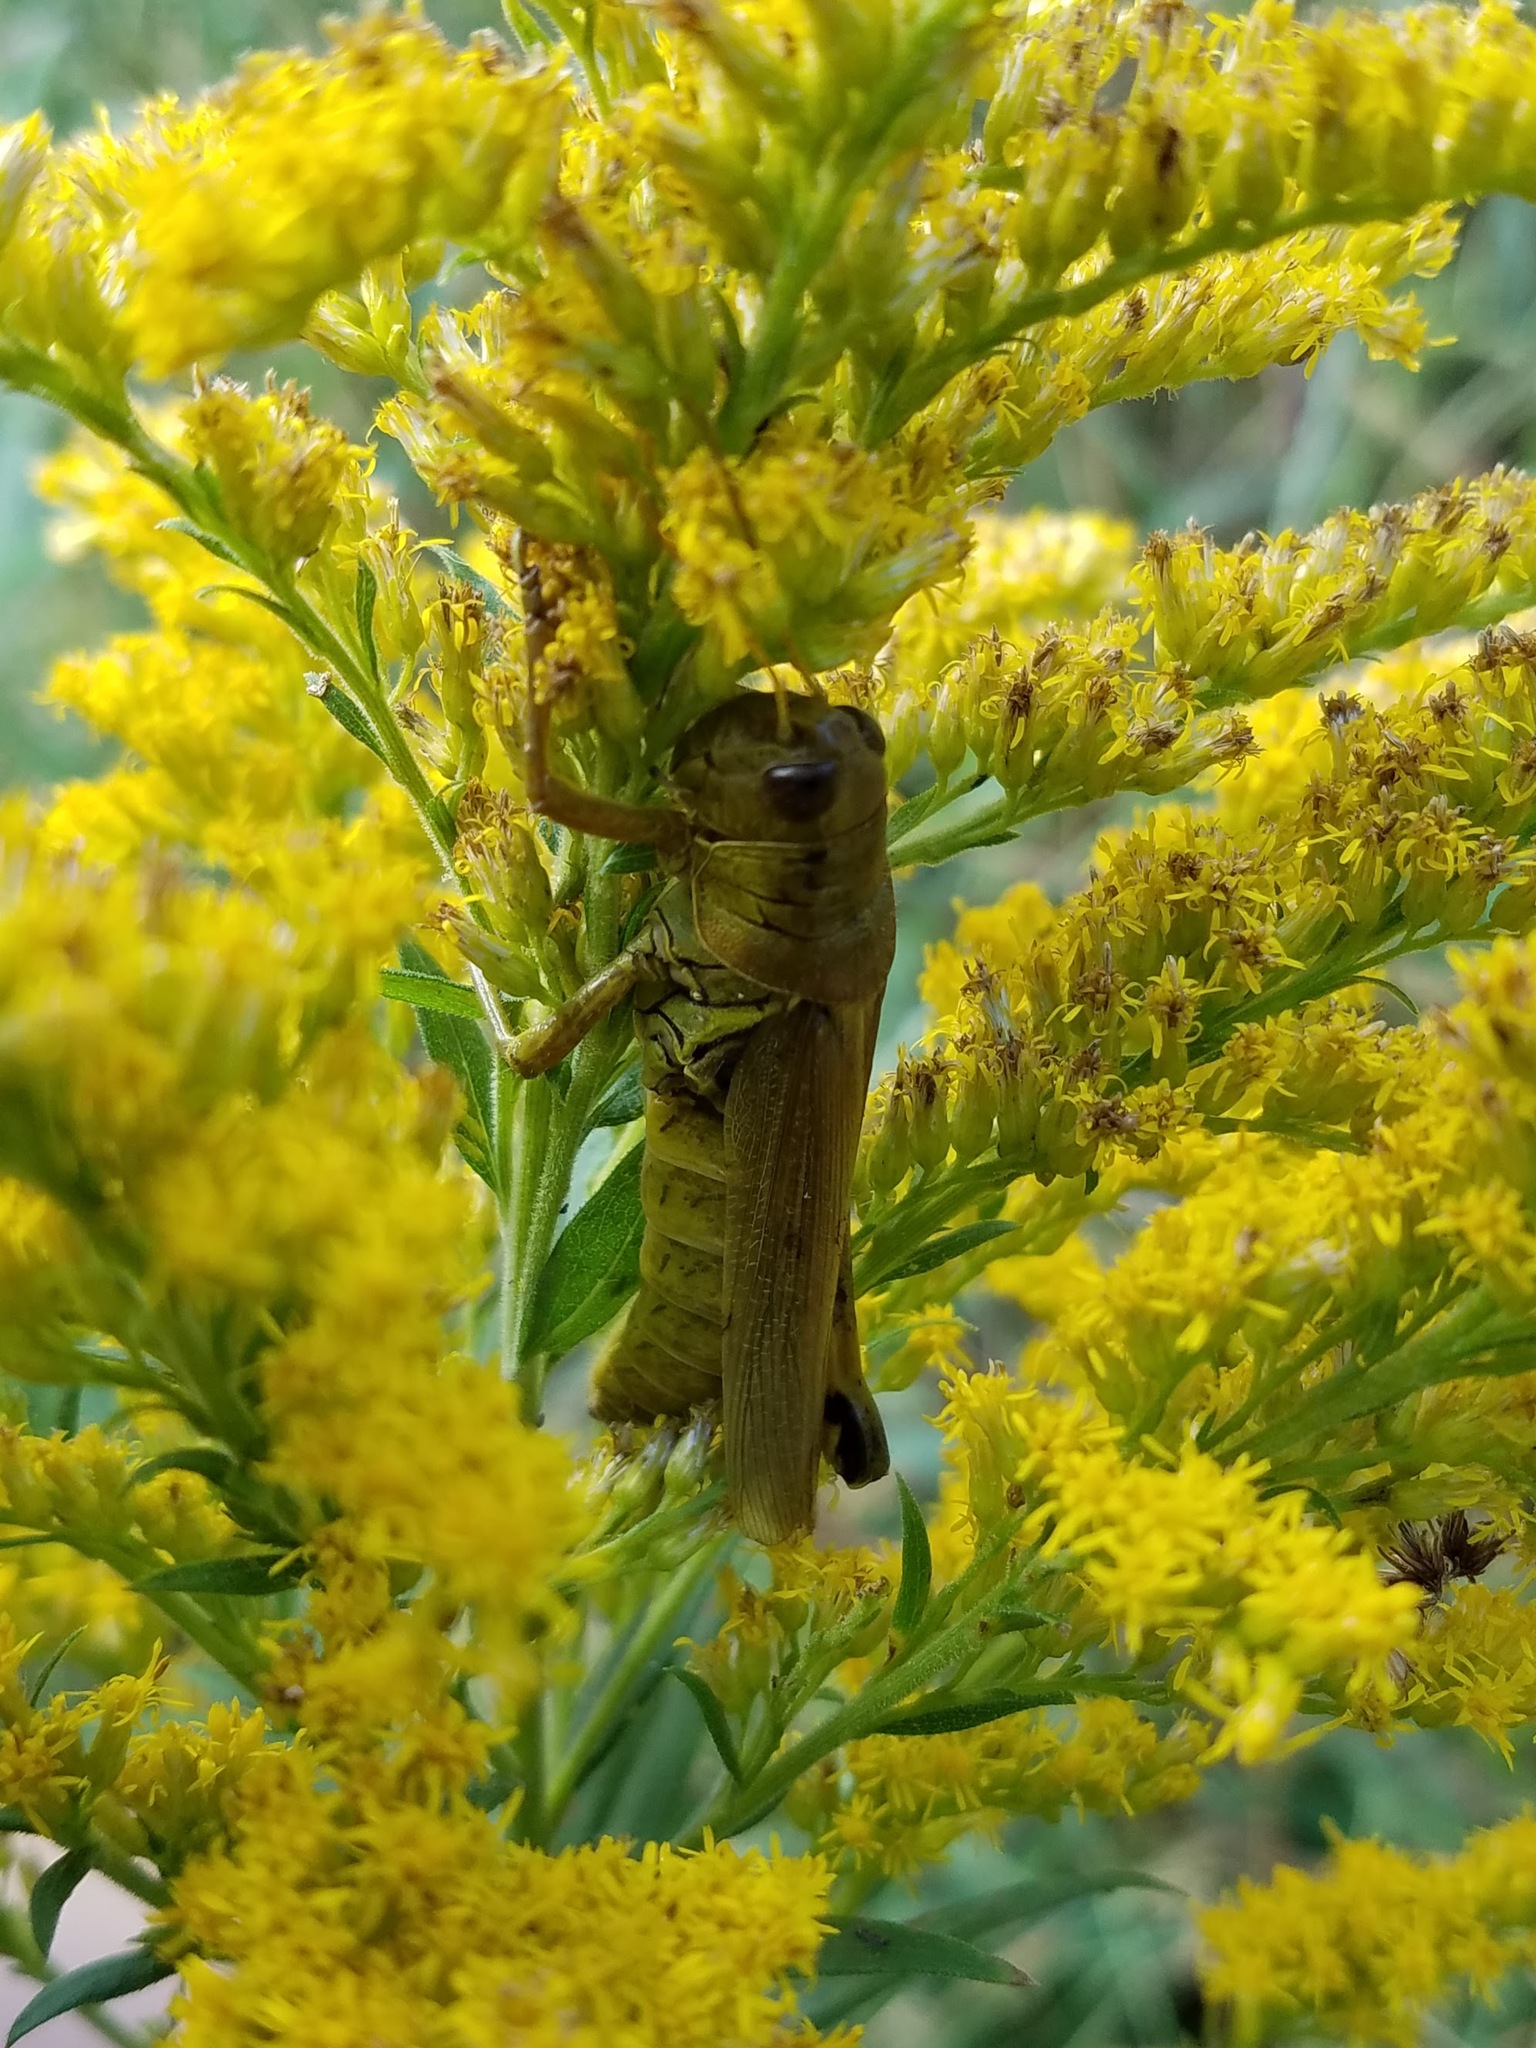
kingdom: Animalia
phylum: Arthropoda
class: Insecta
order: Orthoptera
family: Acrididae
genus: Melanoplus
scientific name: Melanoplus differentialis
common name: Differential grasshopper
